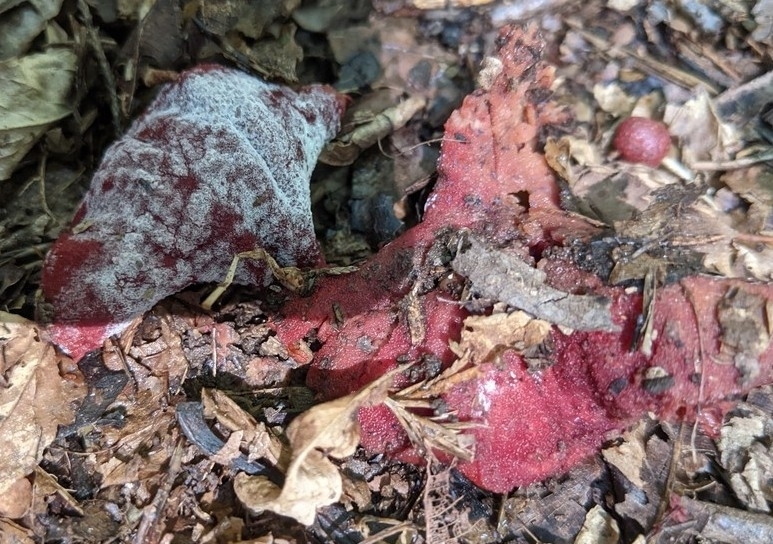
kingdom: Fungi
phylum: Ascomycota
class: Sordariomycetes
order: Hypocreales
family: Hypocreaceae
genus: Hypomyces
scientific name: Hypomyces lactifluorum
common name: Lobster mushroom
